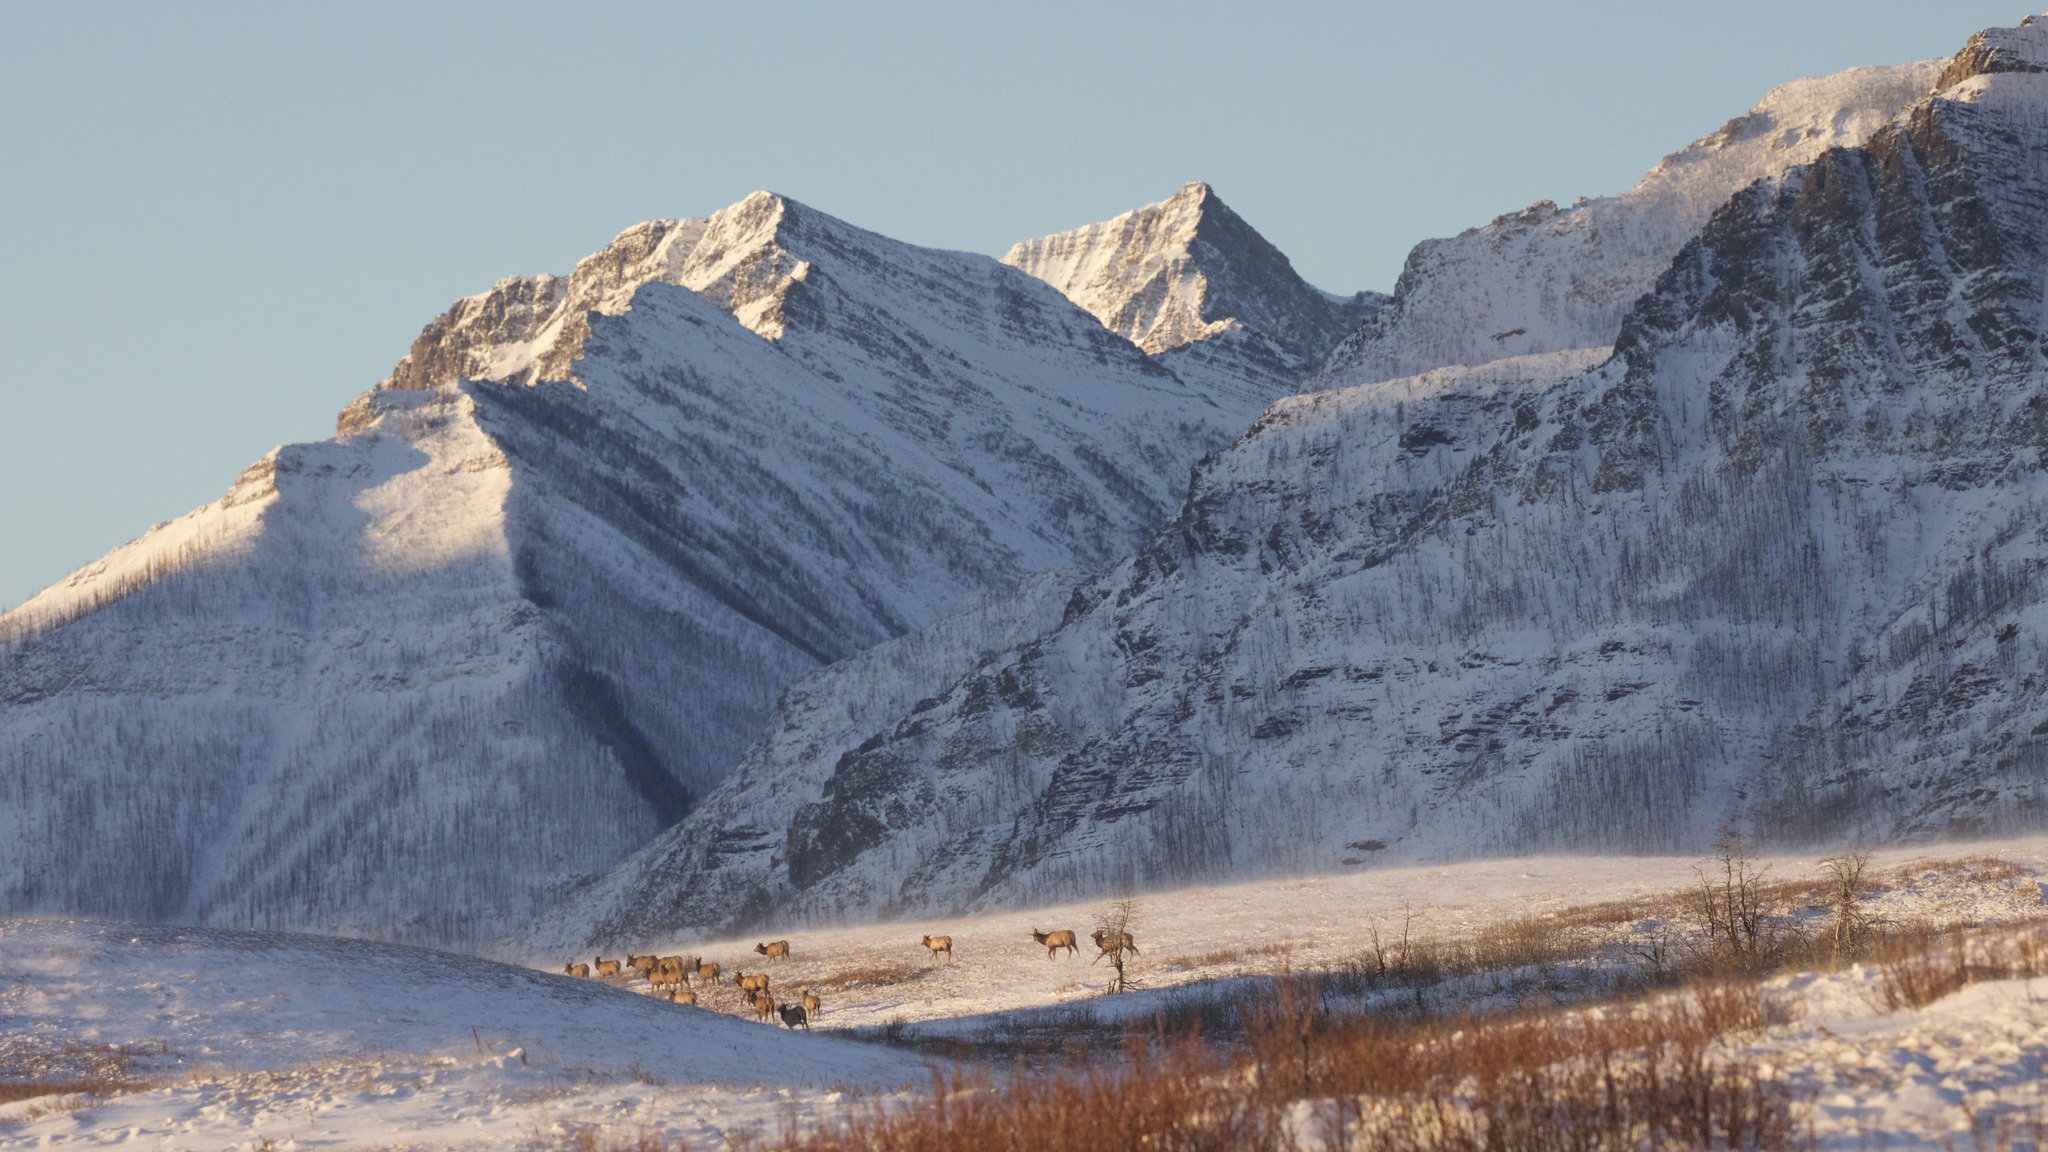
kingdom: Animalia
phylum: Chordata
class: Mammalia
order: Artiodactyla
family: Cervidae
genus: Cervus
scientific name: Cervus elaphus
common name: Red deer
